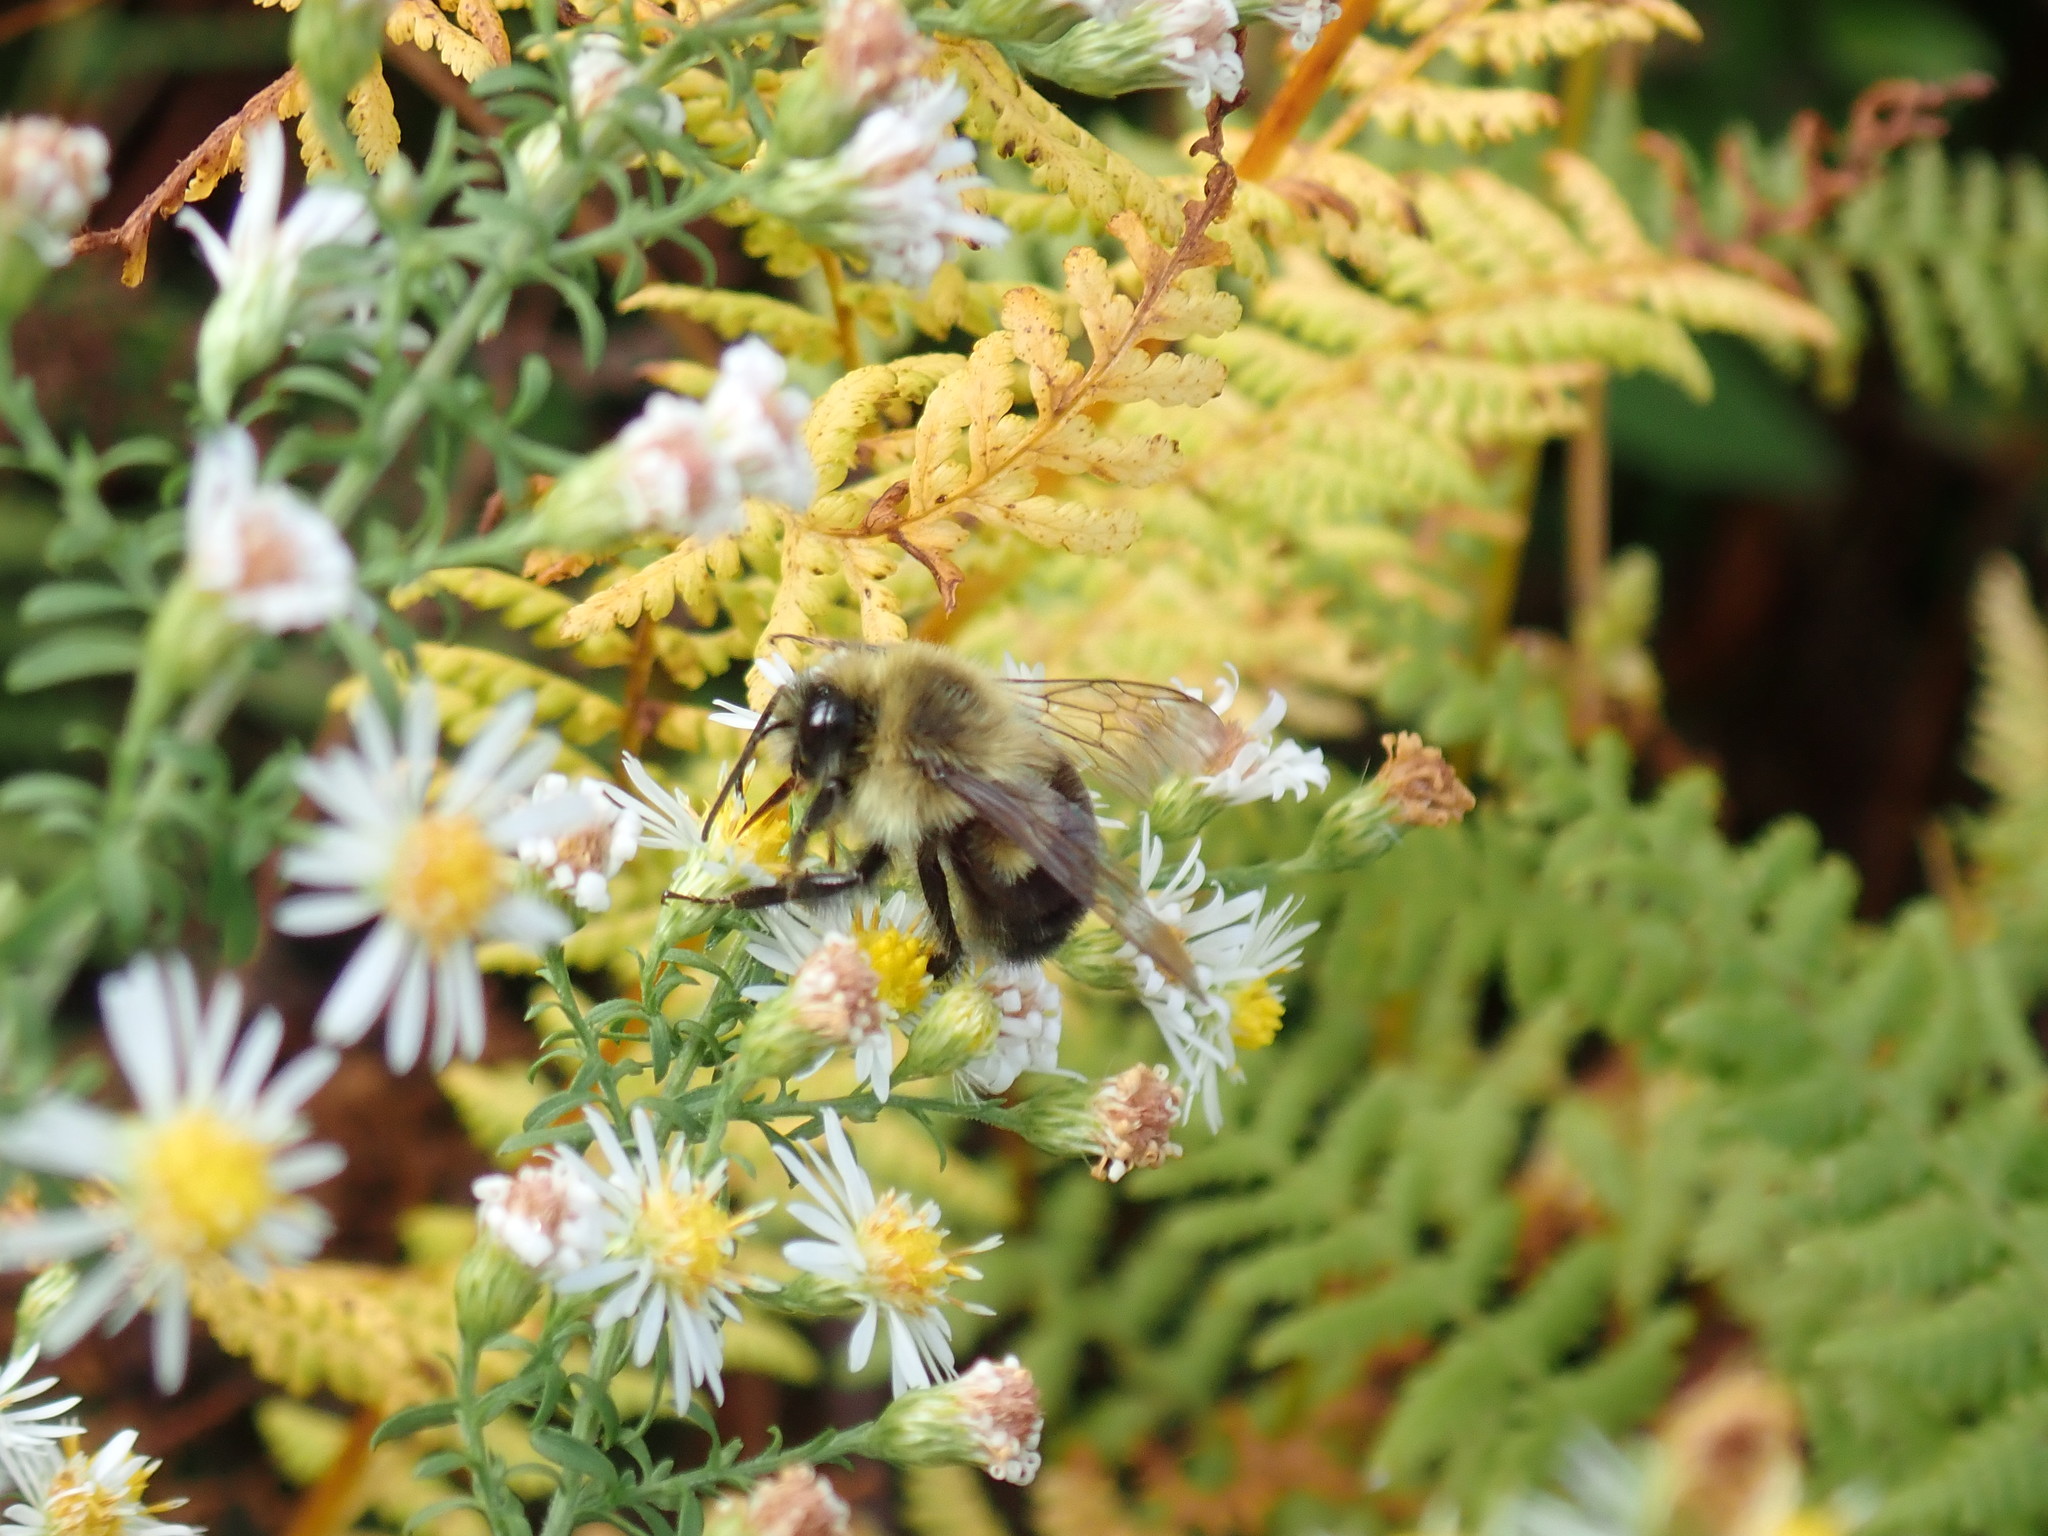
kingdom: Animalia
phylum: Arthropoda
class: Insecta
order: Hymenoptera
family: Apidae
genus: Bombus
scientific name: Bombus impatiens
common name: Common eastern bumble bee
